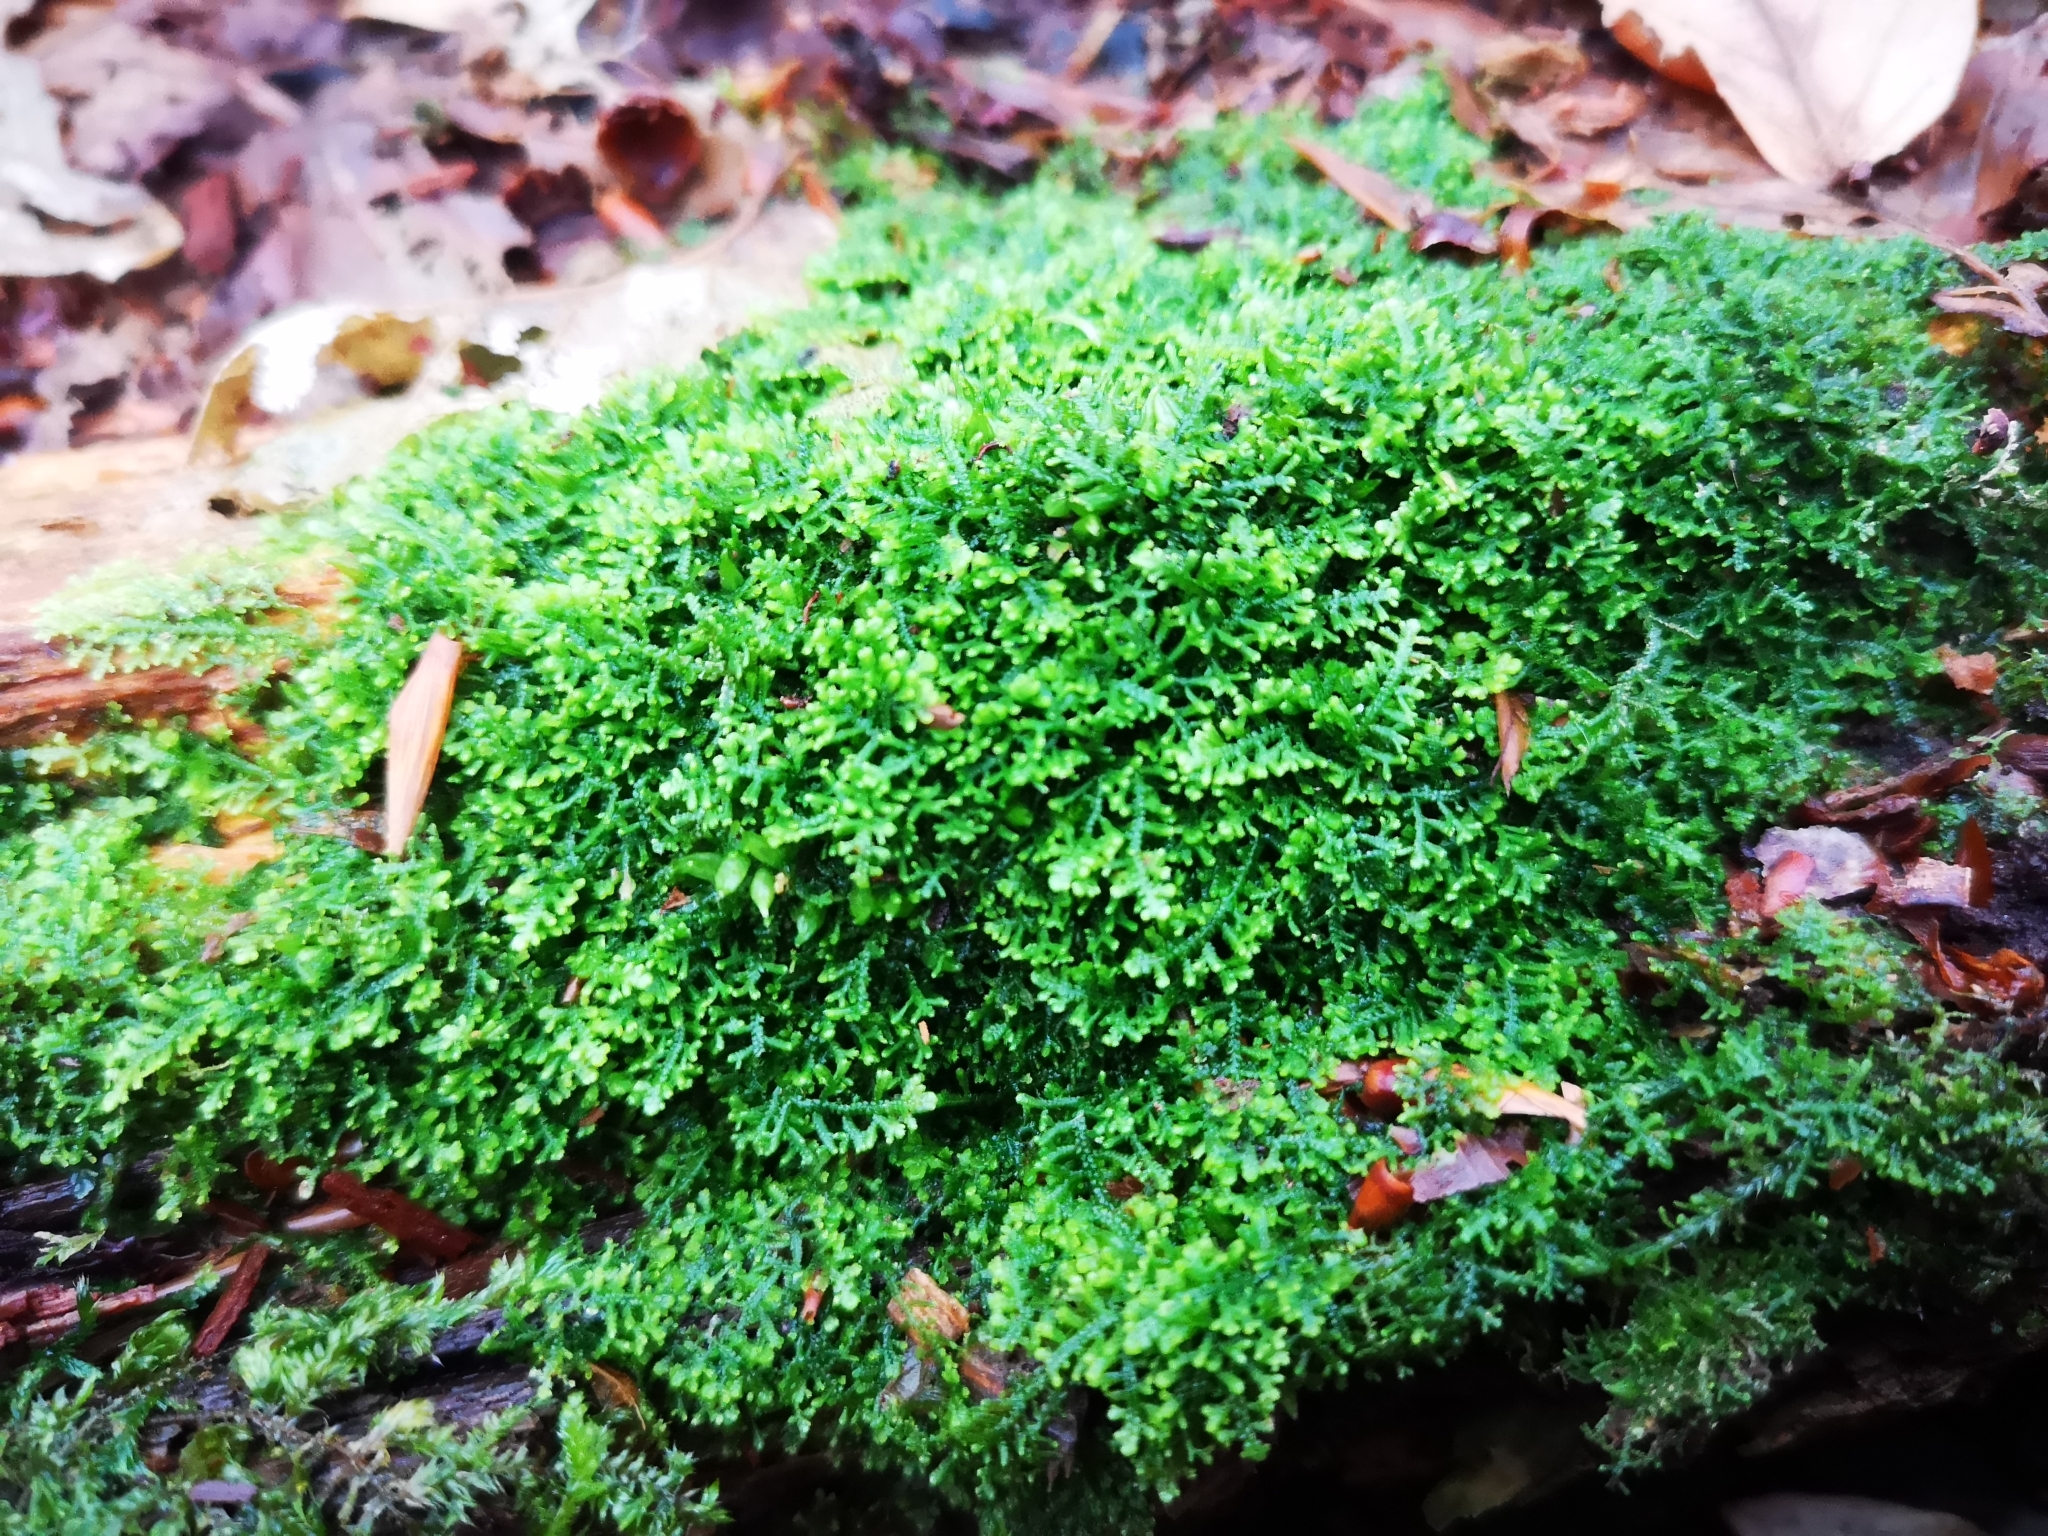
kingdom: Plantae
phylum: Marchantiophyta
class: Jungermanniopsida
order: Jungermanniales
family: Lepidoziaceae
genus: Lepidozia
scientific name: Lepidozia reptans
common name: Creeping fingerwort
